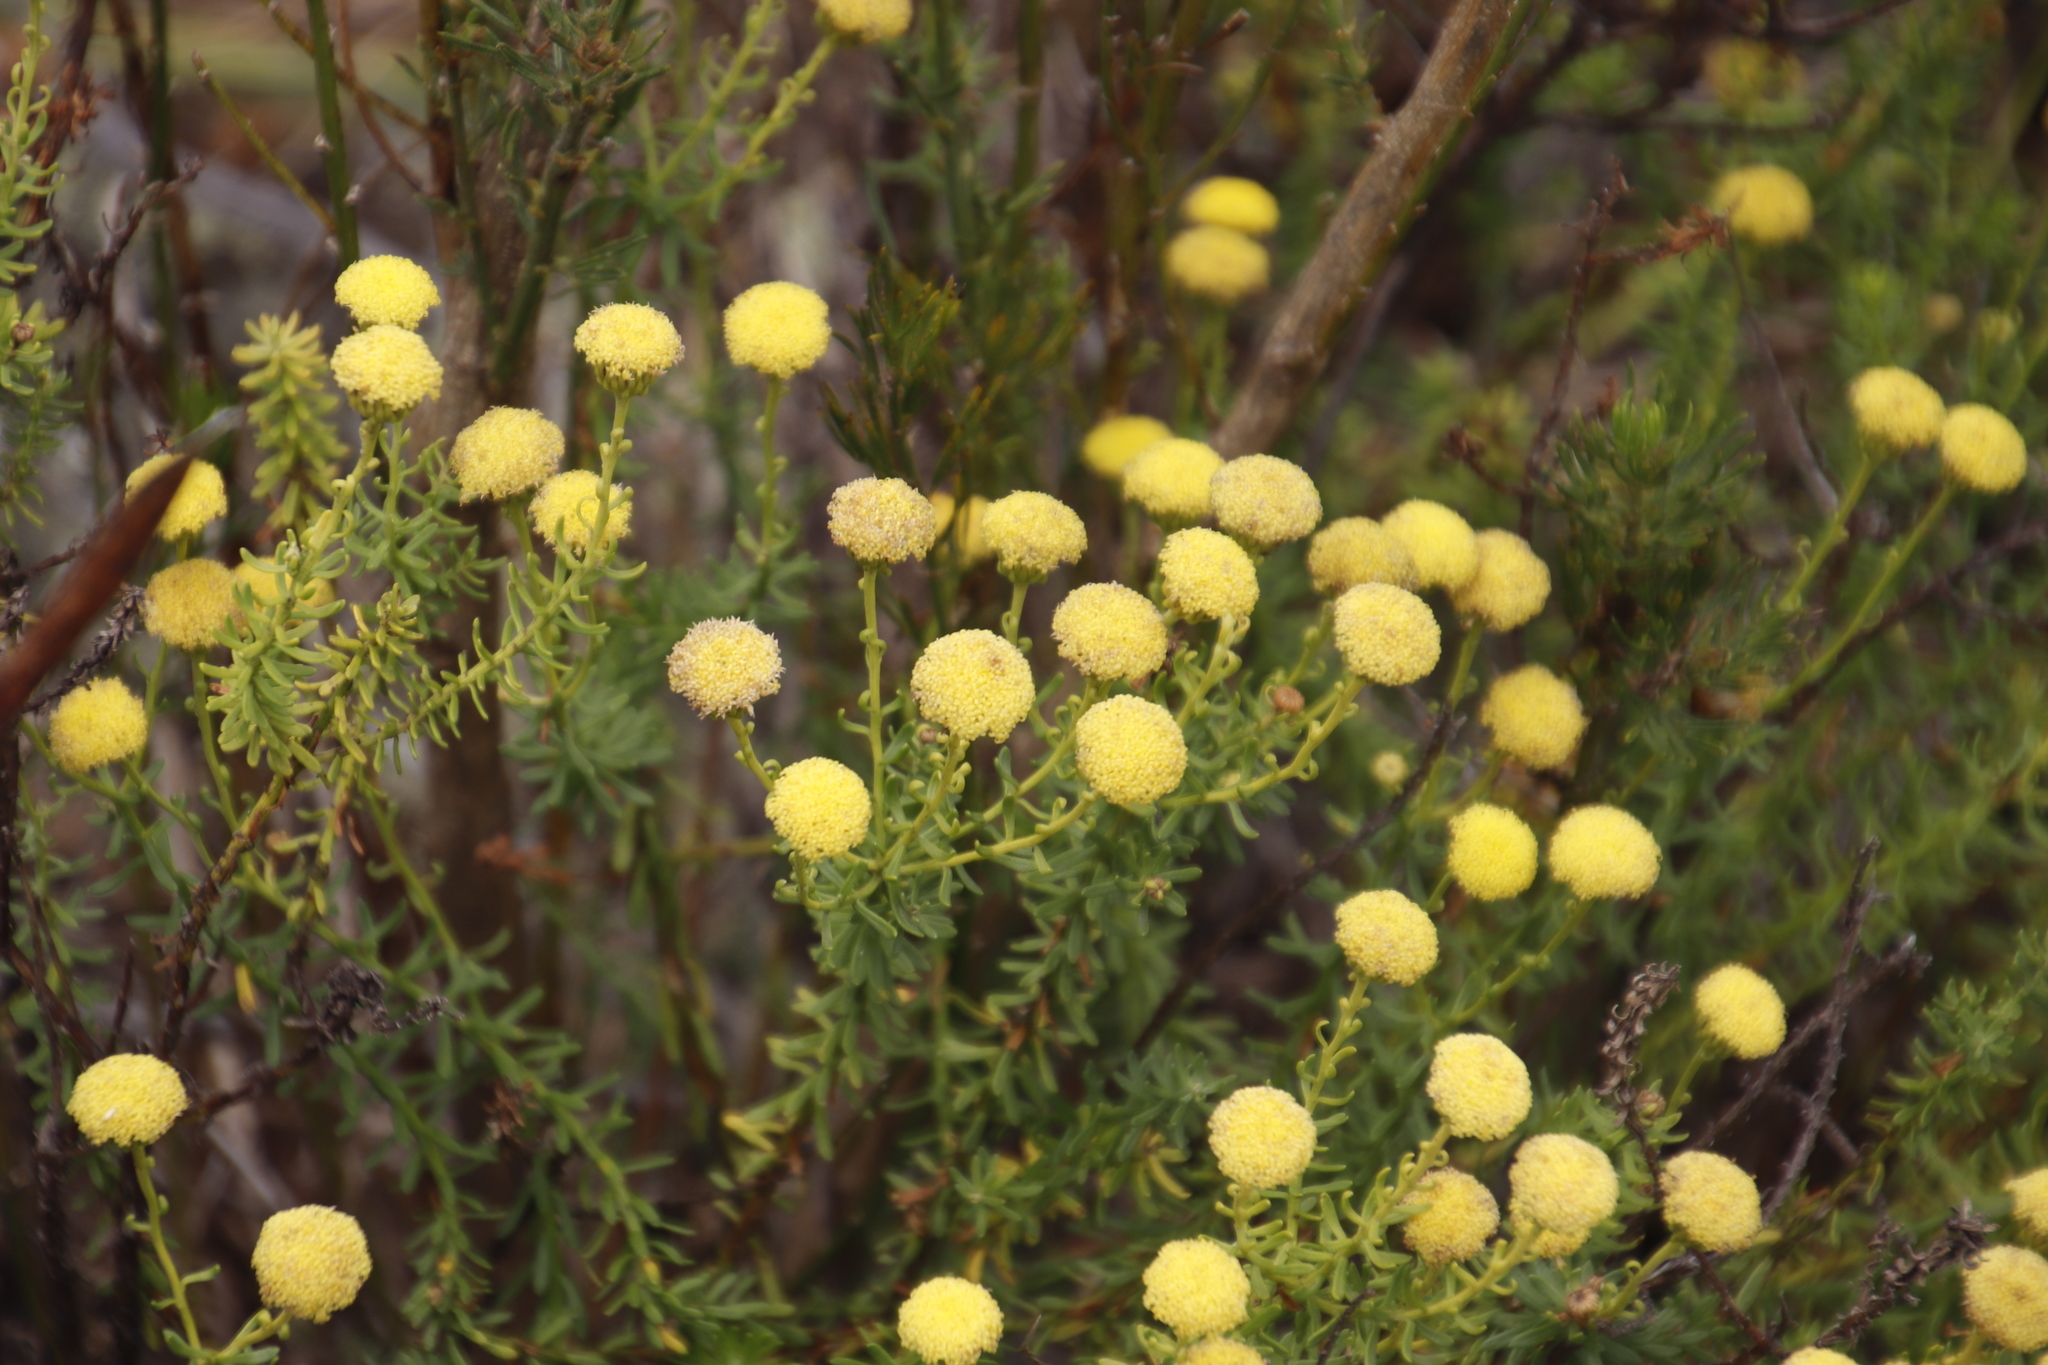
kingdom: Plantae
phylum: Tracheophyta
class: Magnoliopsida
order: Asterales
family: Asteraceae
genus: Chrysocoma
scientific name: Chrysocoma cernua
